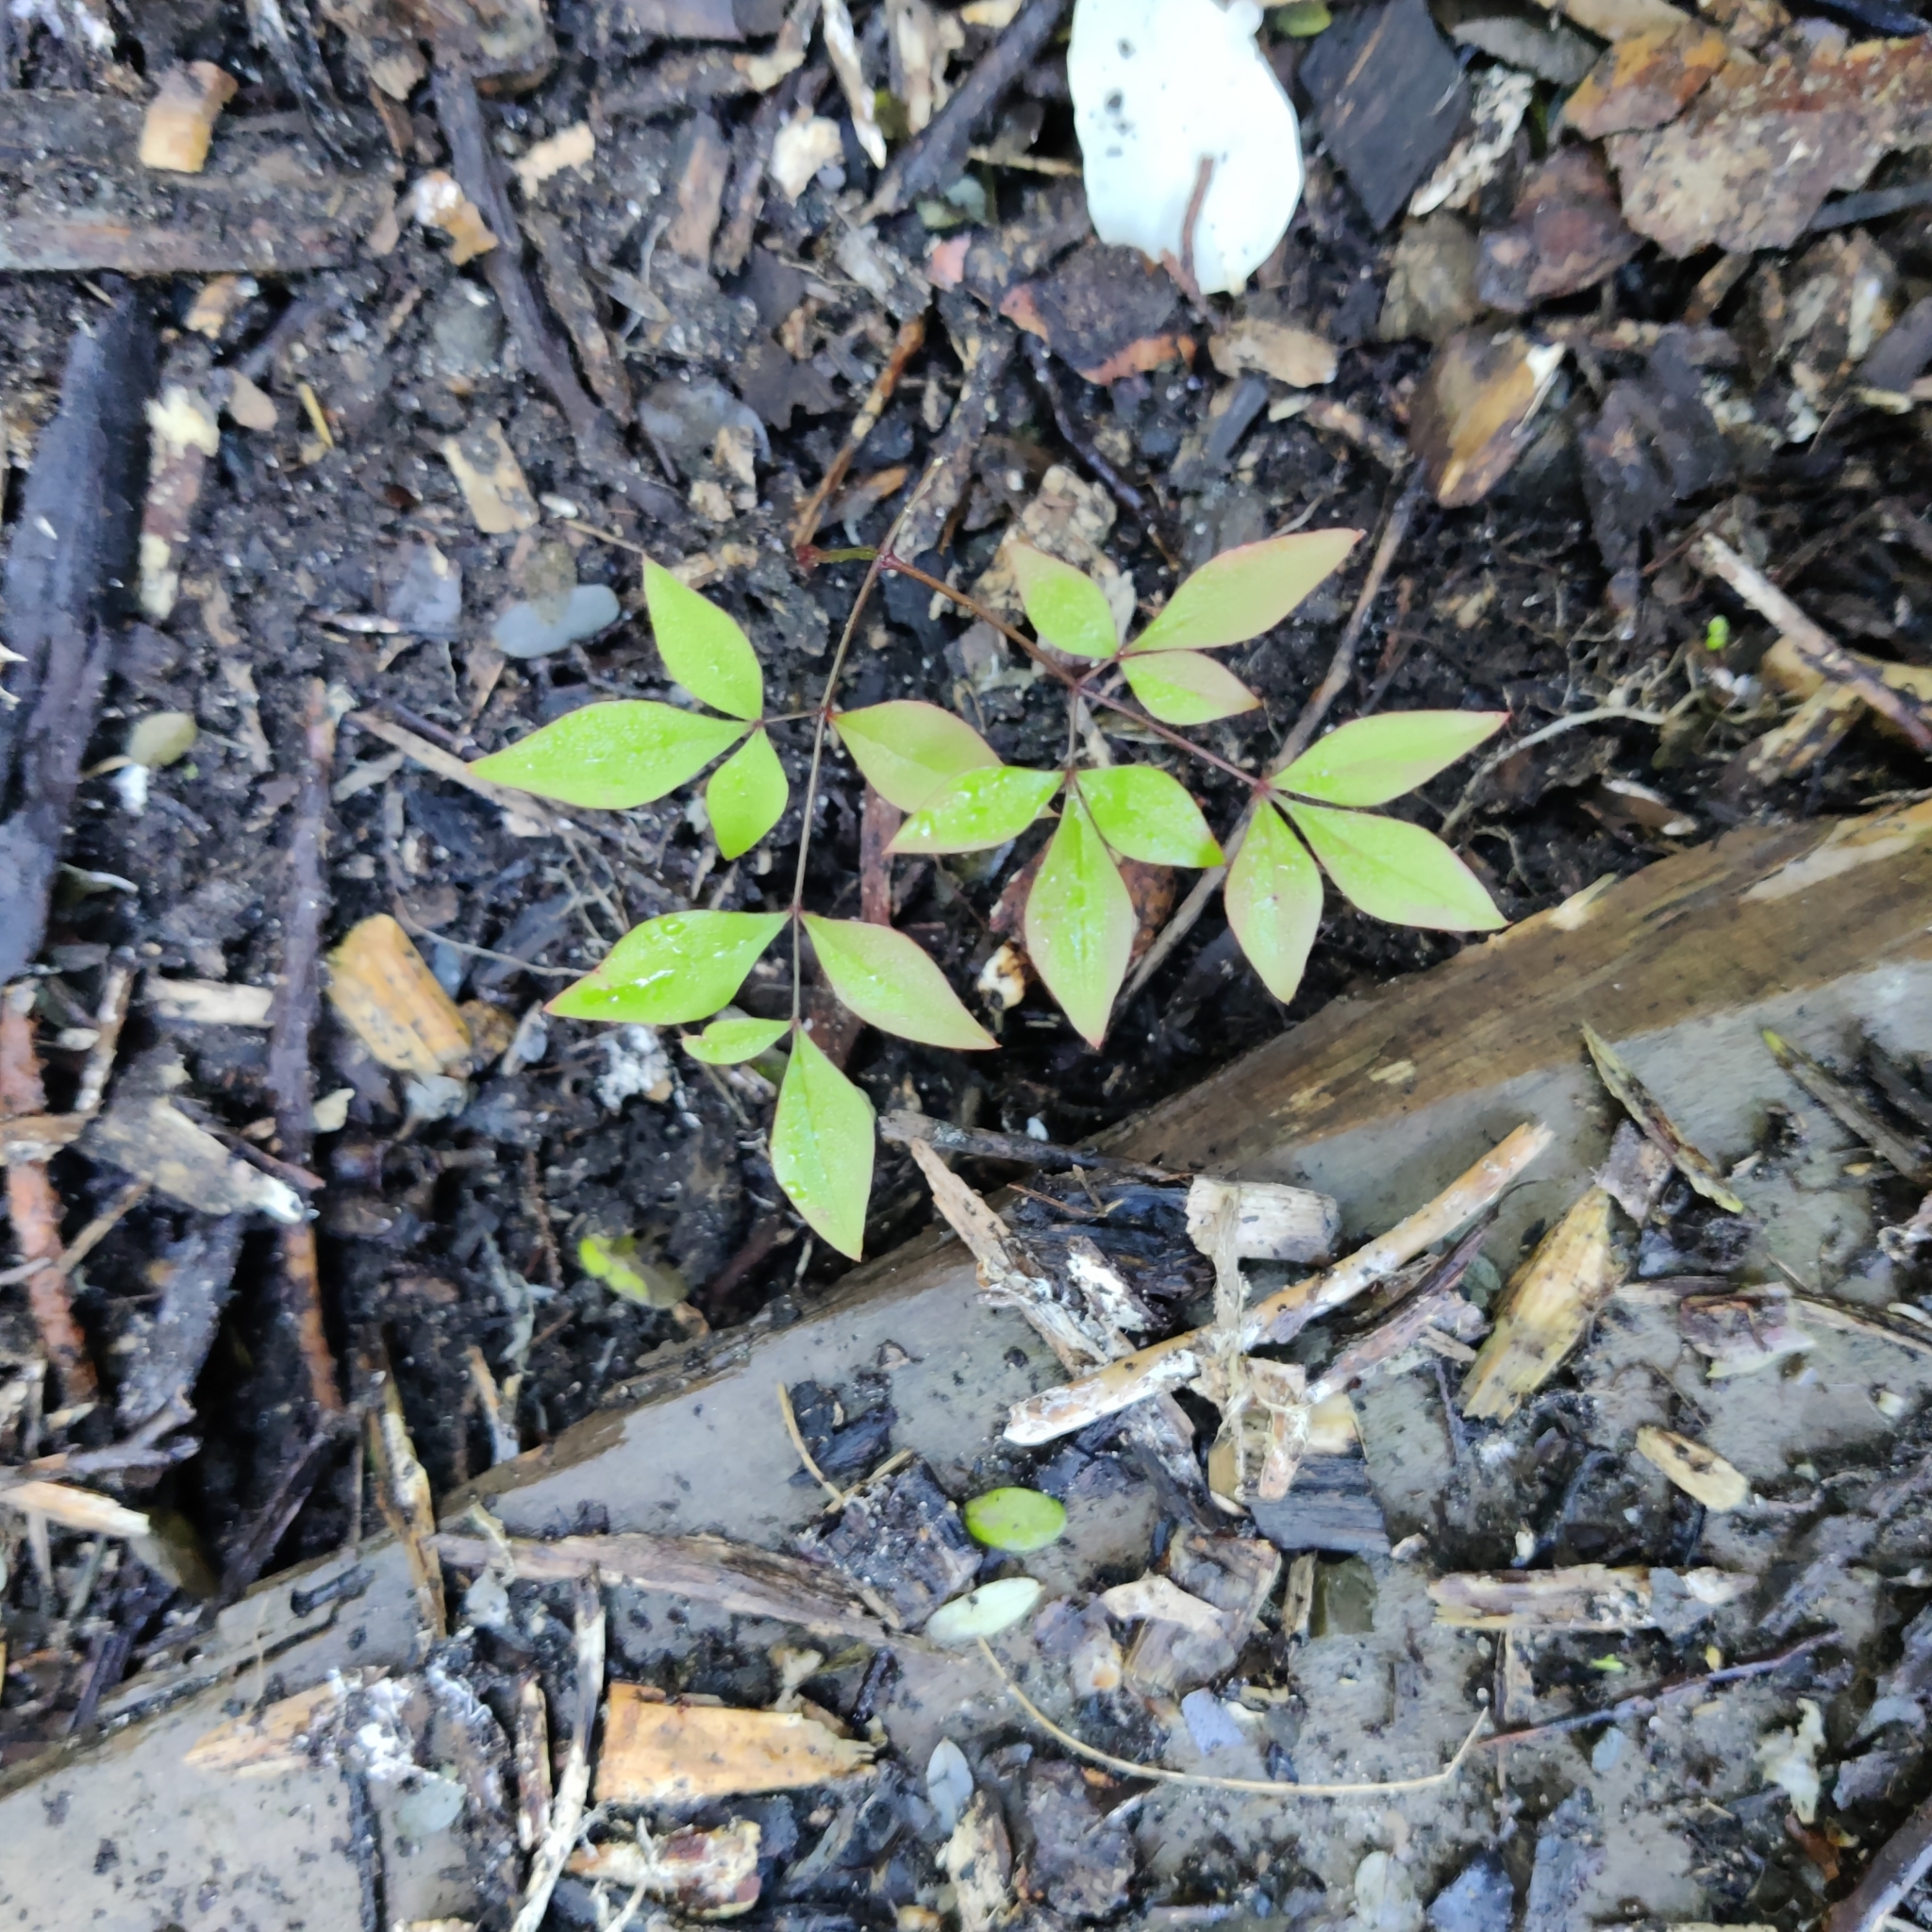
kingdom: Plantae
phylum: Tracheophyta
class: Magnoliopsida
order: Ranunculales
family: Berberidaceae
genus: Nandina
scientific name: Nandina domestica
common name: Sacred bamboo
